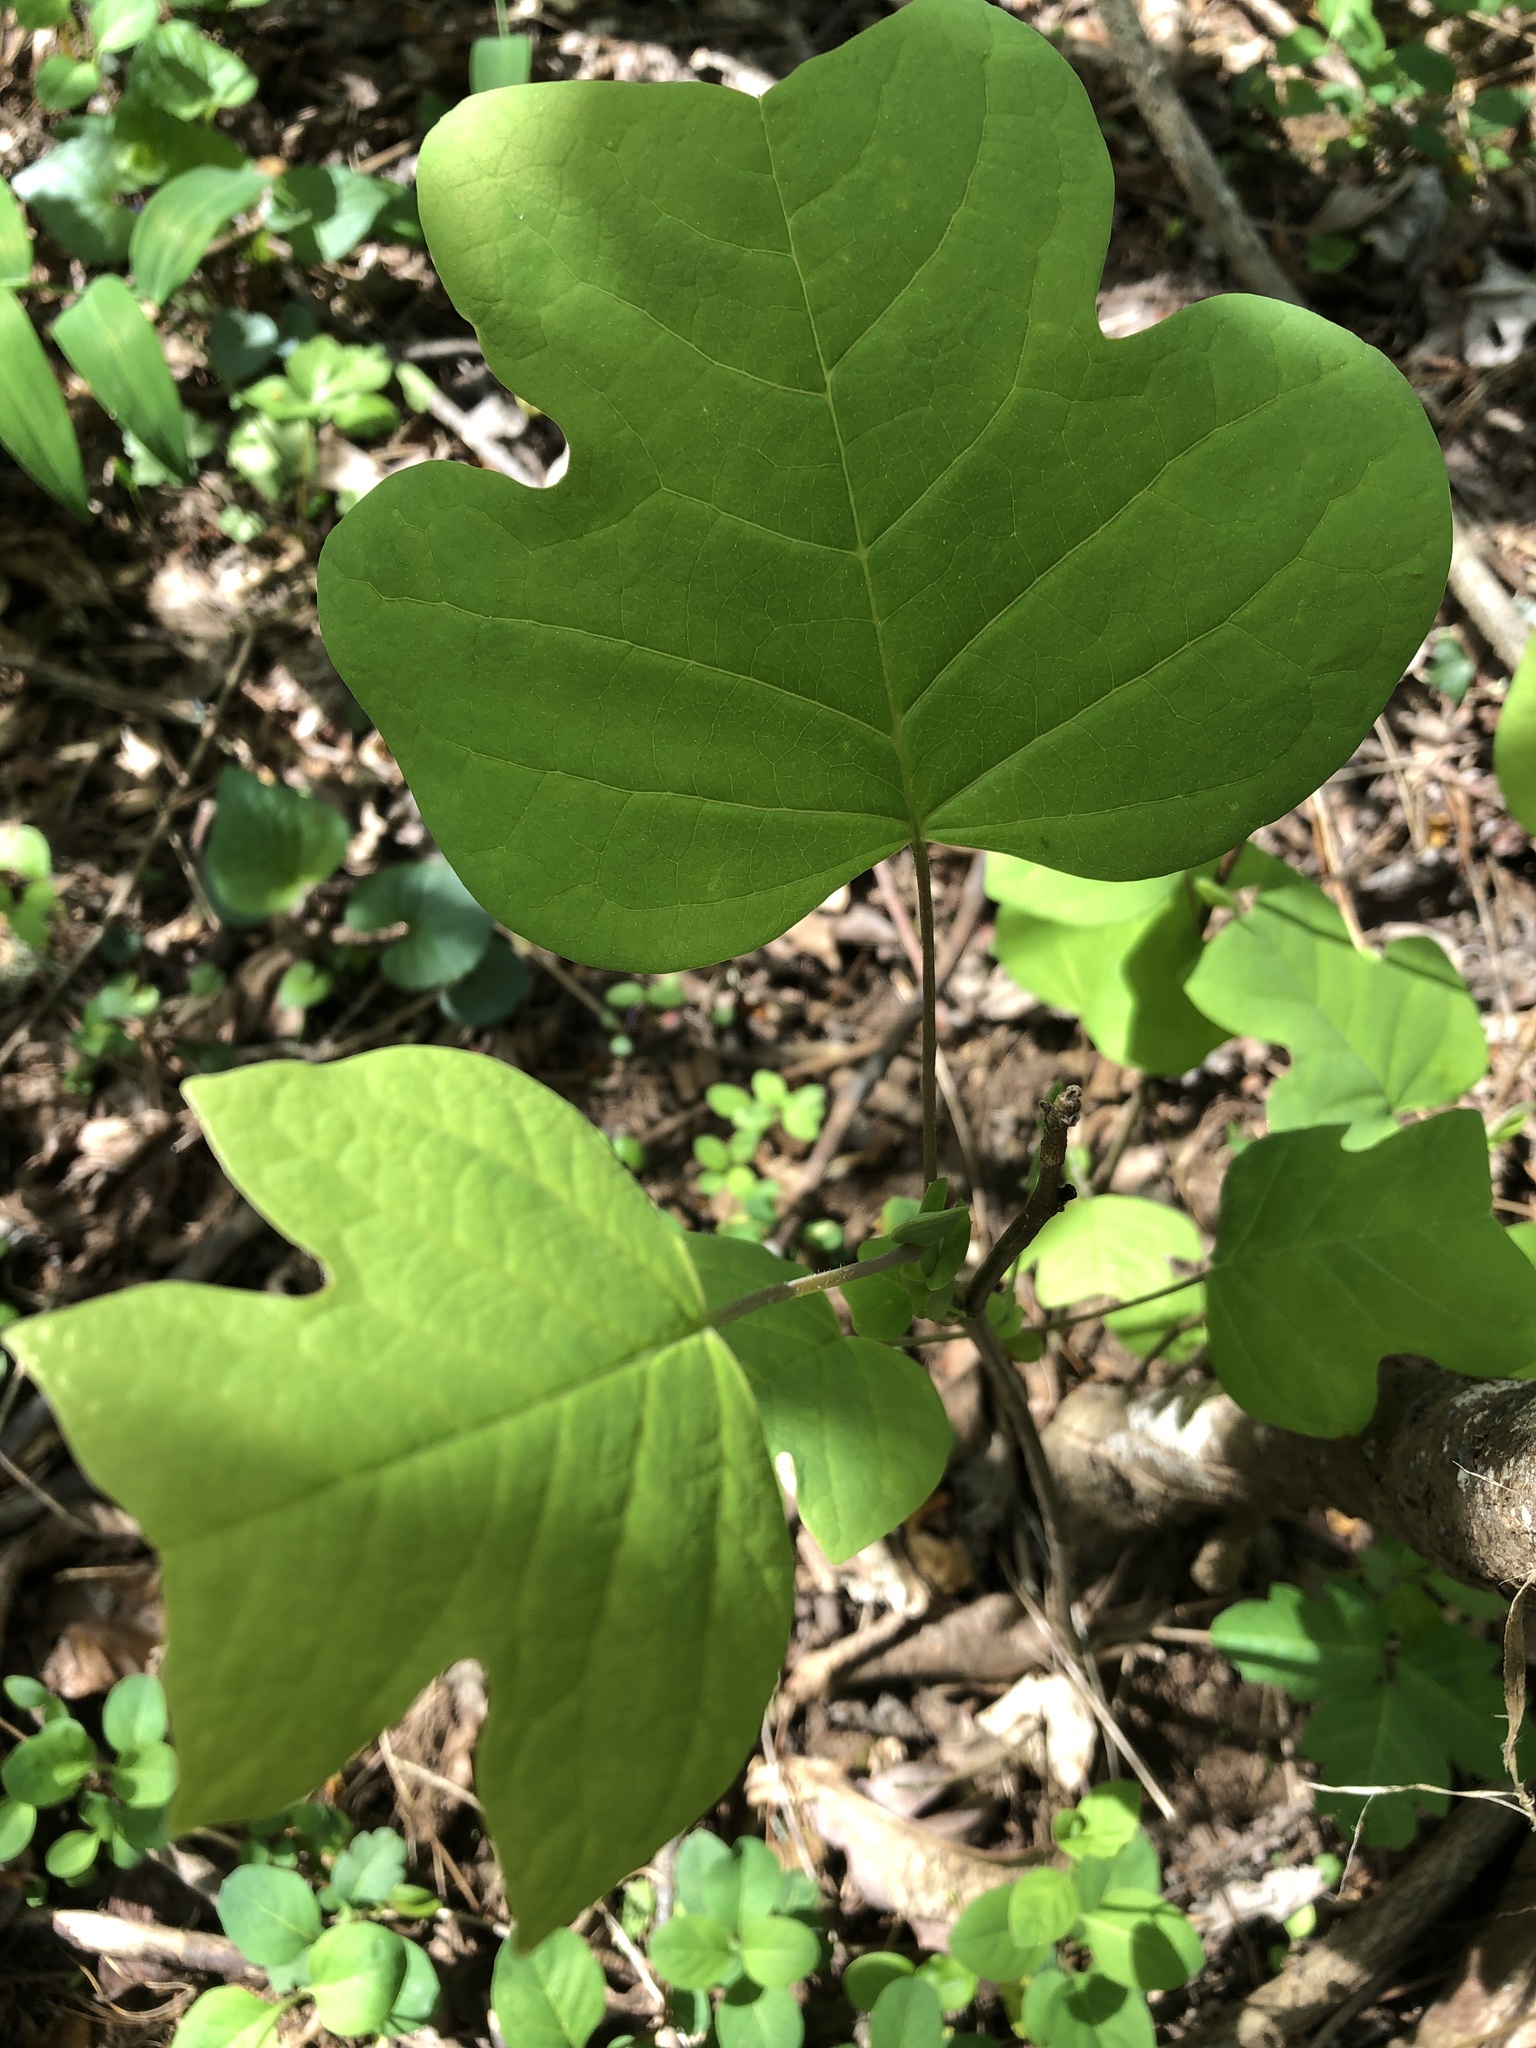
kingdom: Plantae
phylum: Tracheophyta
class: Magnoliopsida
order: Magnoliales
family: Magnoliaceae
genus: Liriodendron
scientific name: Liriodendron tulipifera
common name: Tulip tree
